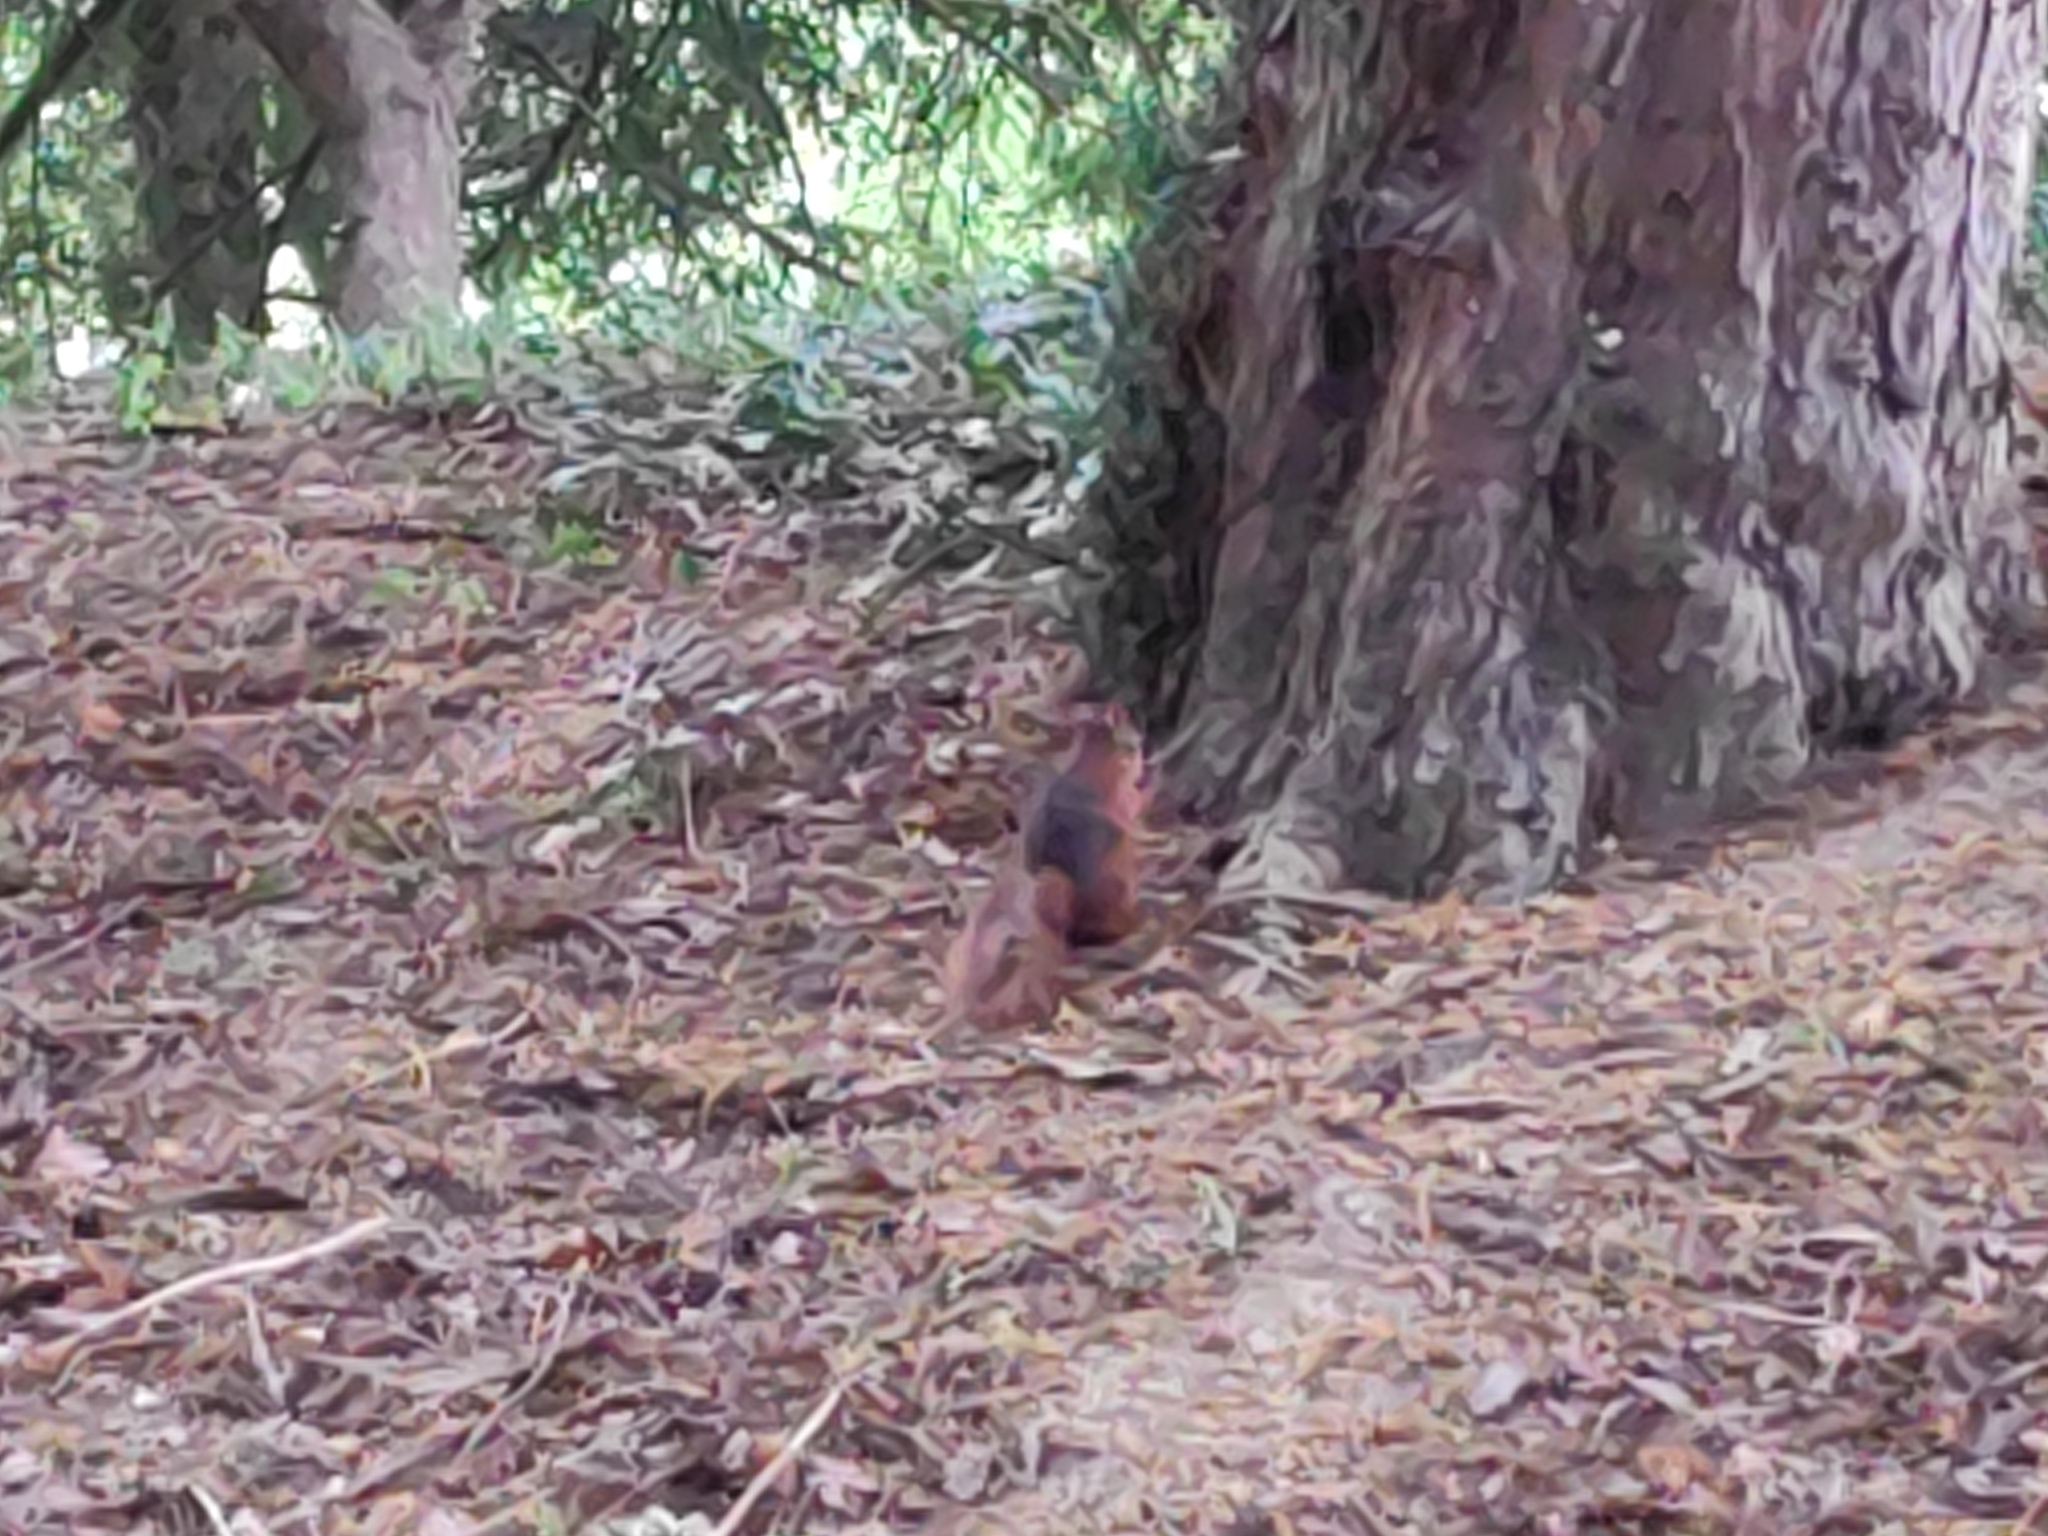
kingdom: Animalia
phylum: Chordata
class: Mammalia
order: Rodentia
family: Sciuridae
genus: Sciurus
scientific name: Sciurus vulgaris
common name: Eurasian red squirrel
